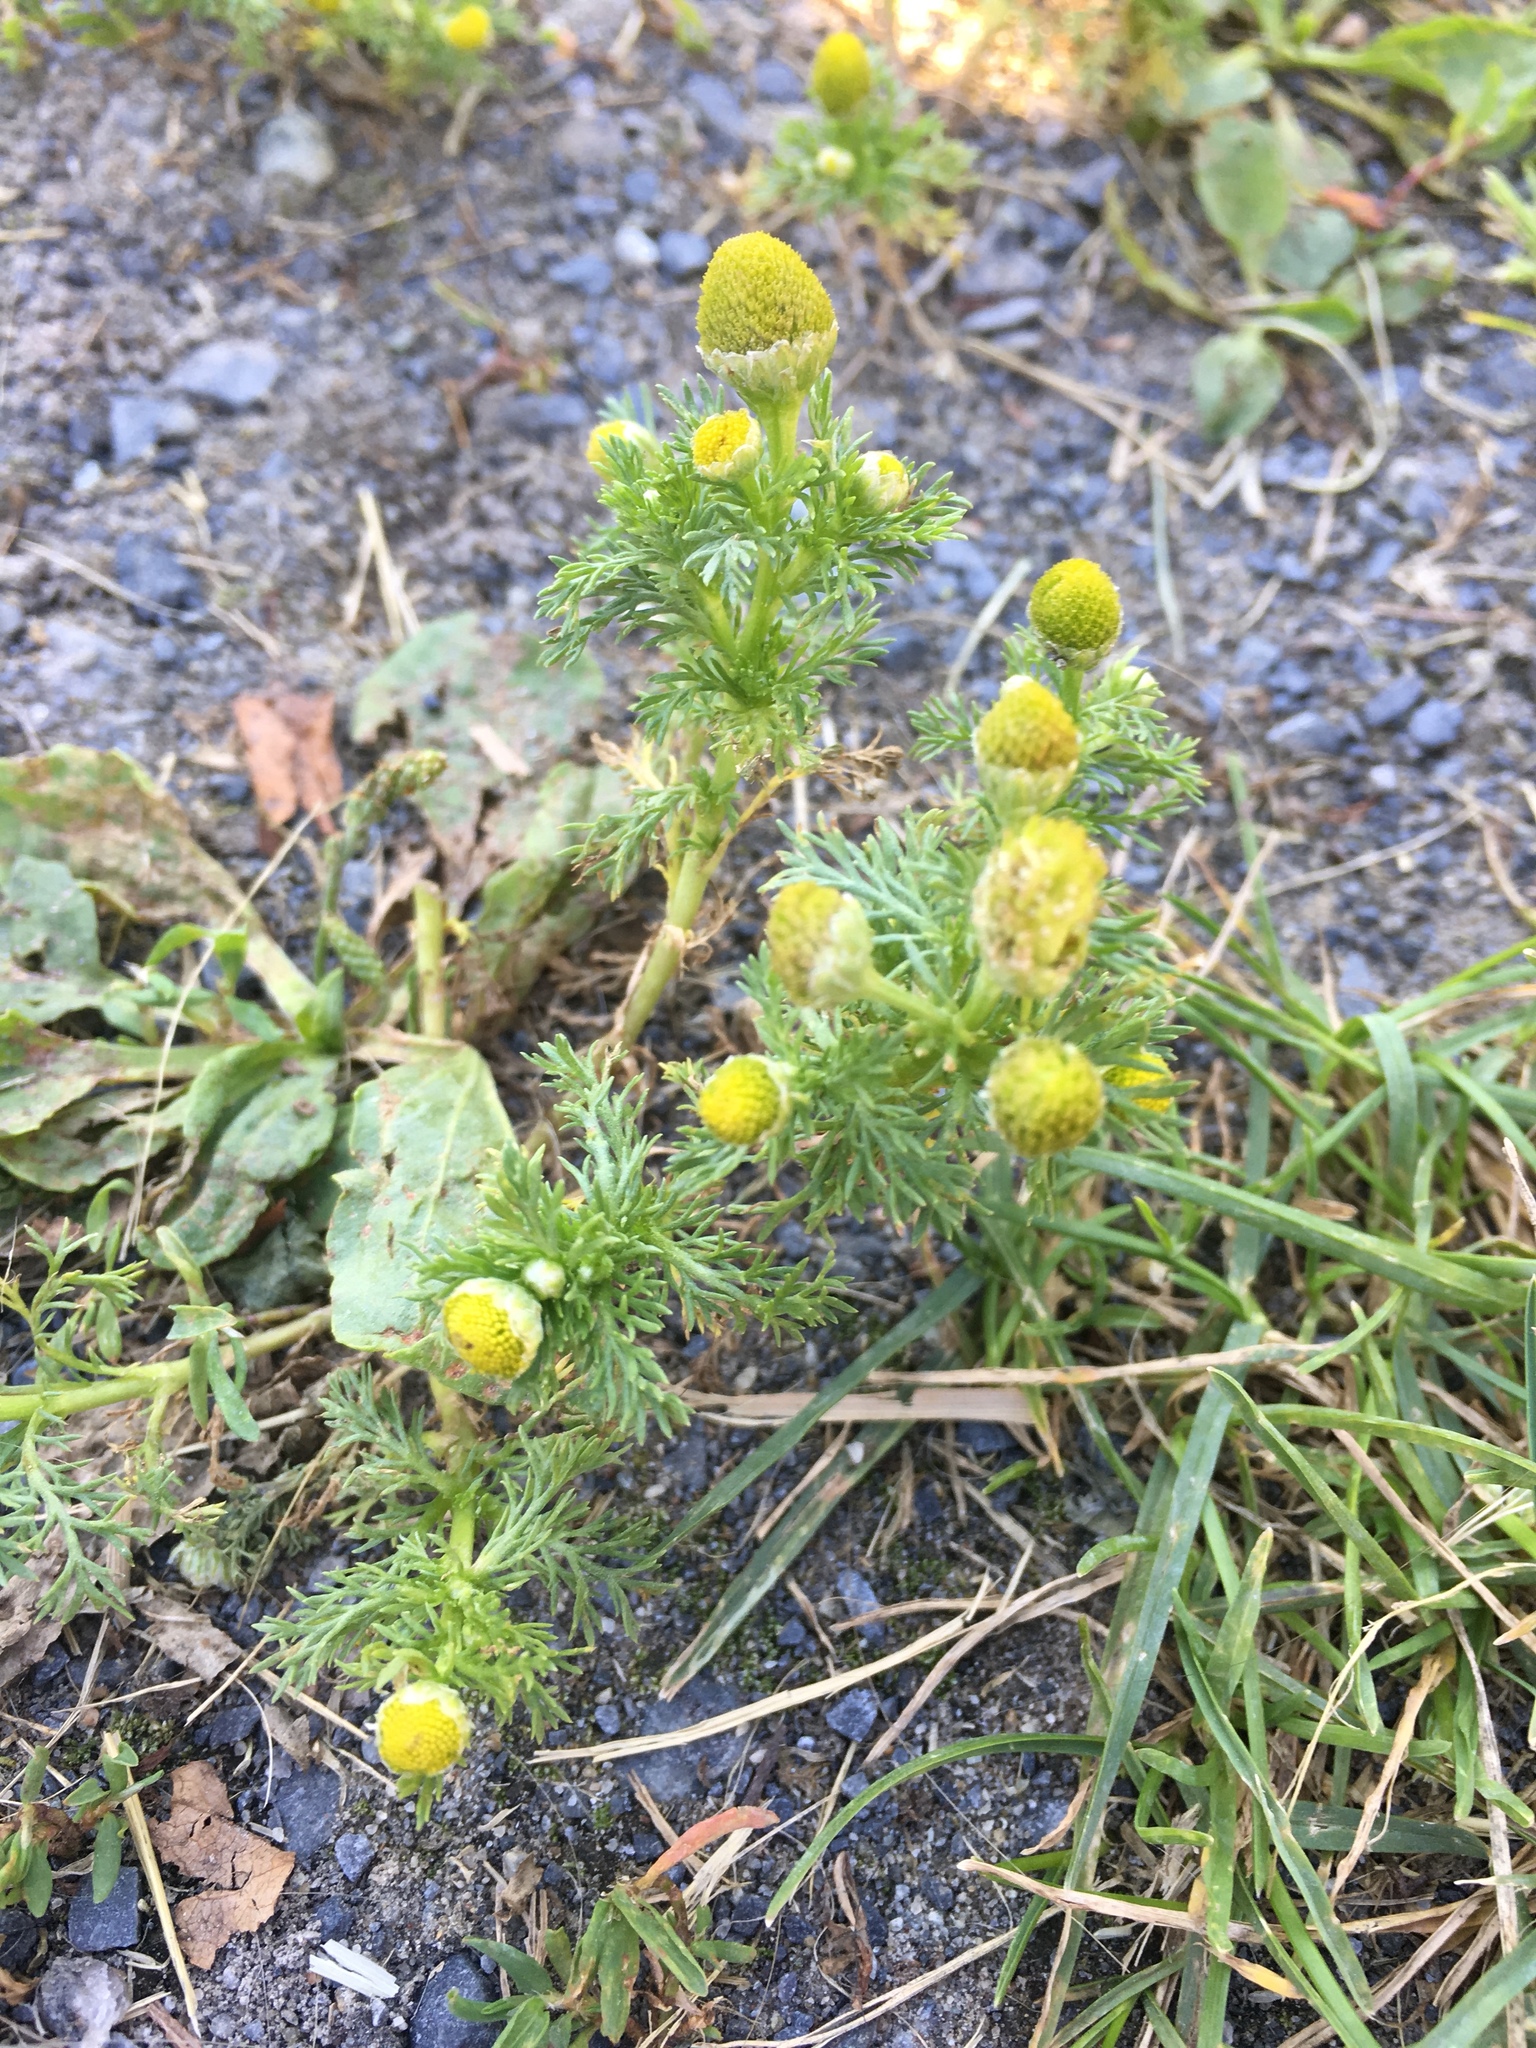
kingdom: Plantae
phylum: Tracheophyta
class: Magnoliopsida
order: Asterales
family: Asteraceae
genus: Matricaria
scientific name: Matricaria discoidea
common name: Disc mayweed
